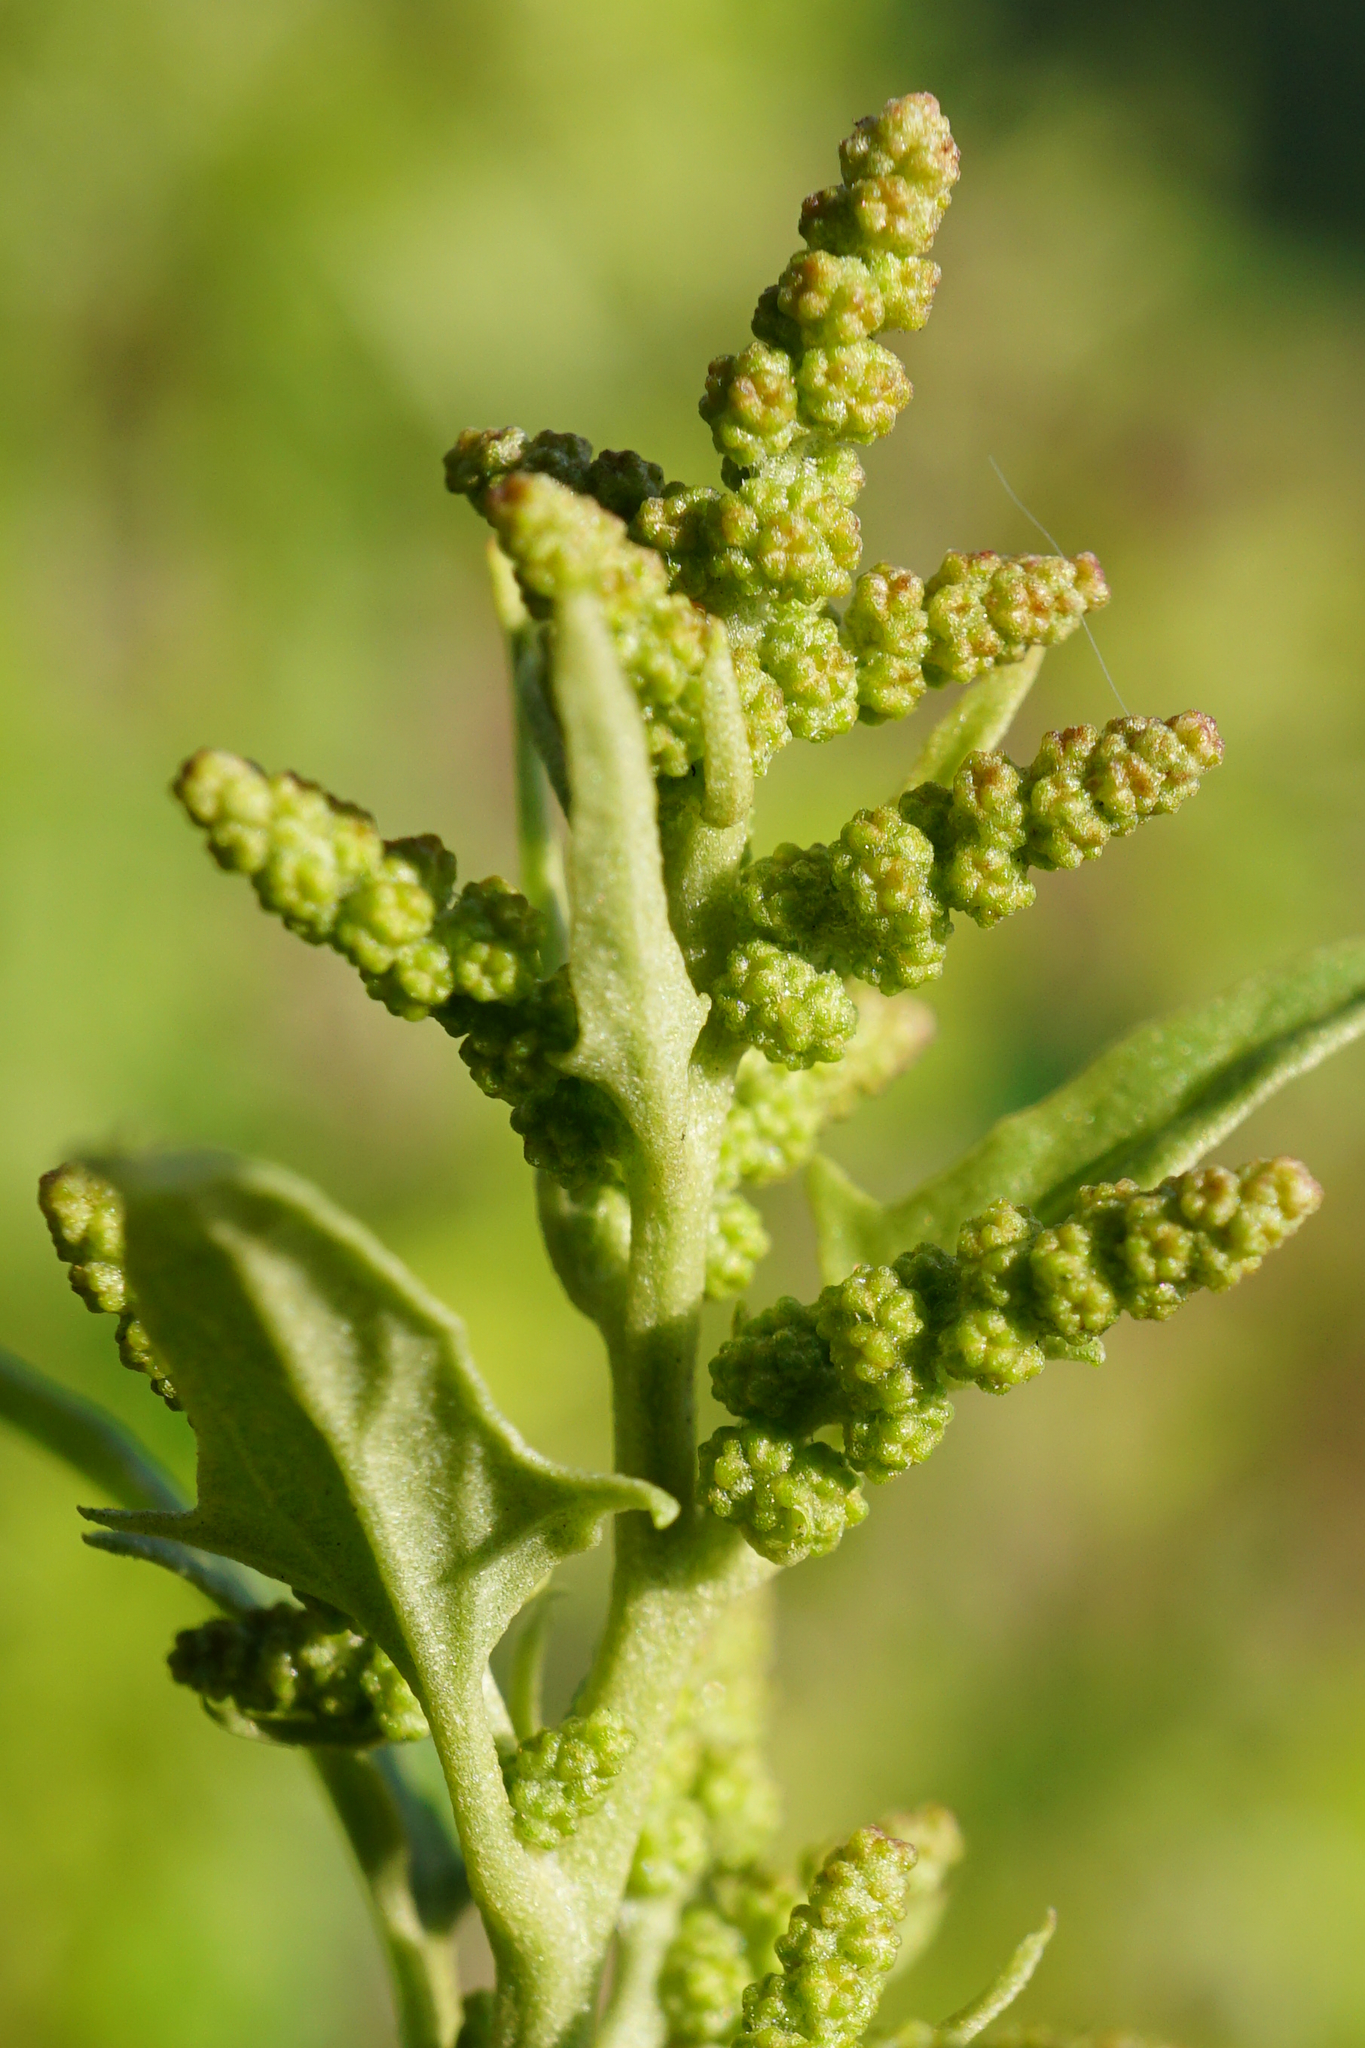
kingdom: Plantae
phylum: Tracheophyta
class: Magnoliopsida
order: Caryophyllales
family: Amaranthaceae
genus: Atriplex
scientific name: Atriplex sagittata
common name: Purple orache
